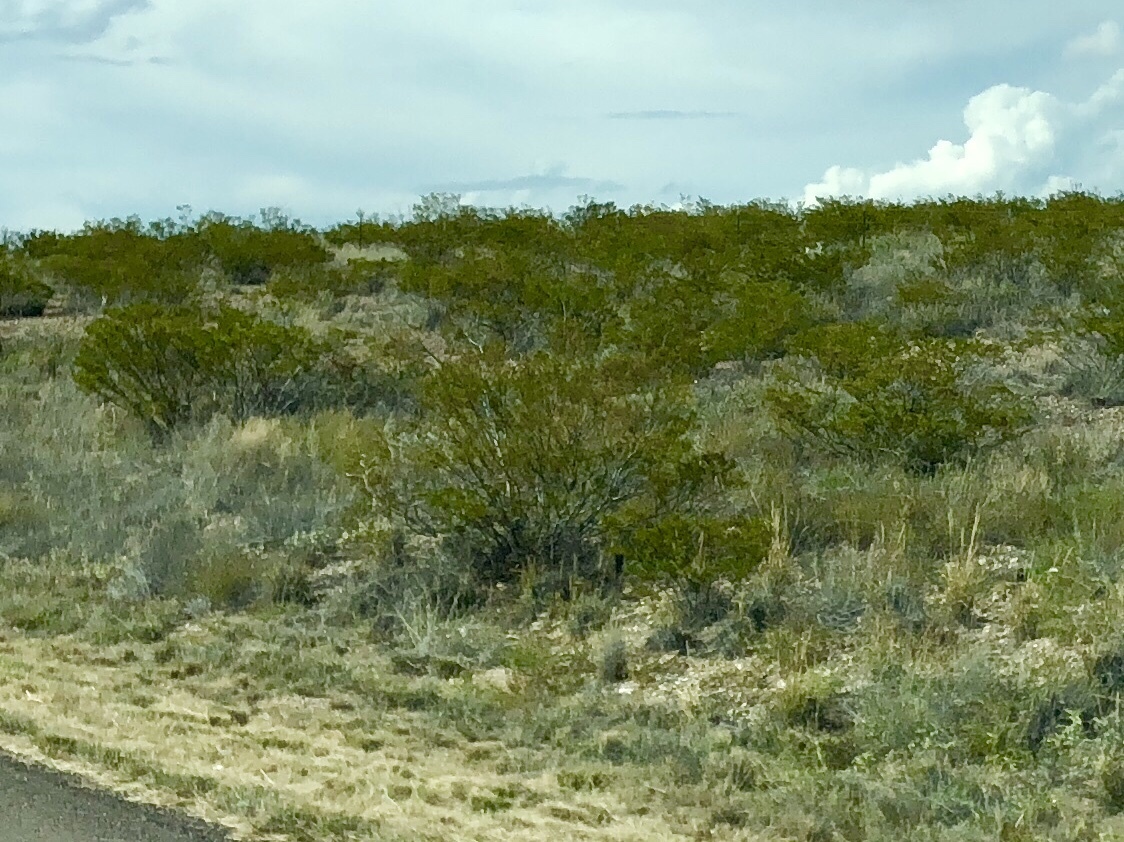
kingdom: Plantae
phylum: Tracheophyta
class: Magnoliopsida
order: Zygophyllales
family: Zygophyllaceae
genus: Larrea
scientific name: Larrea tridentata
